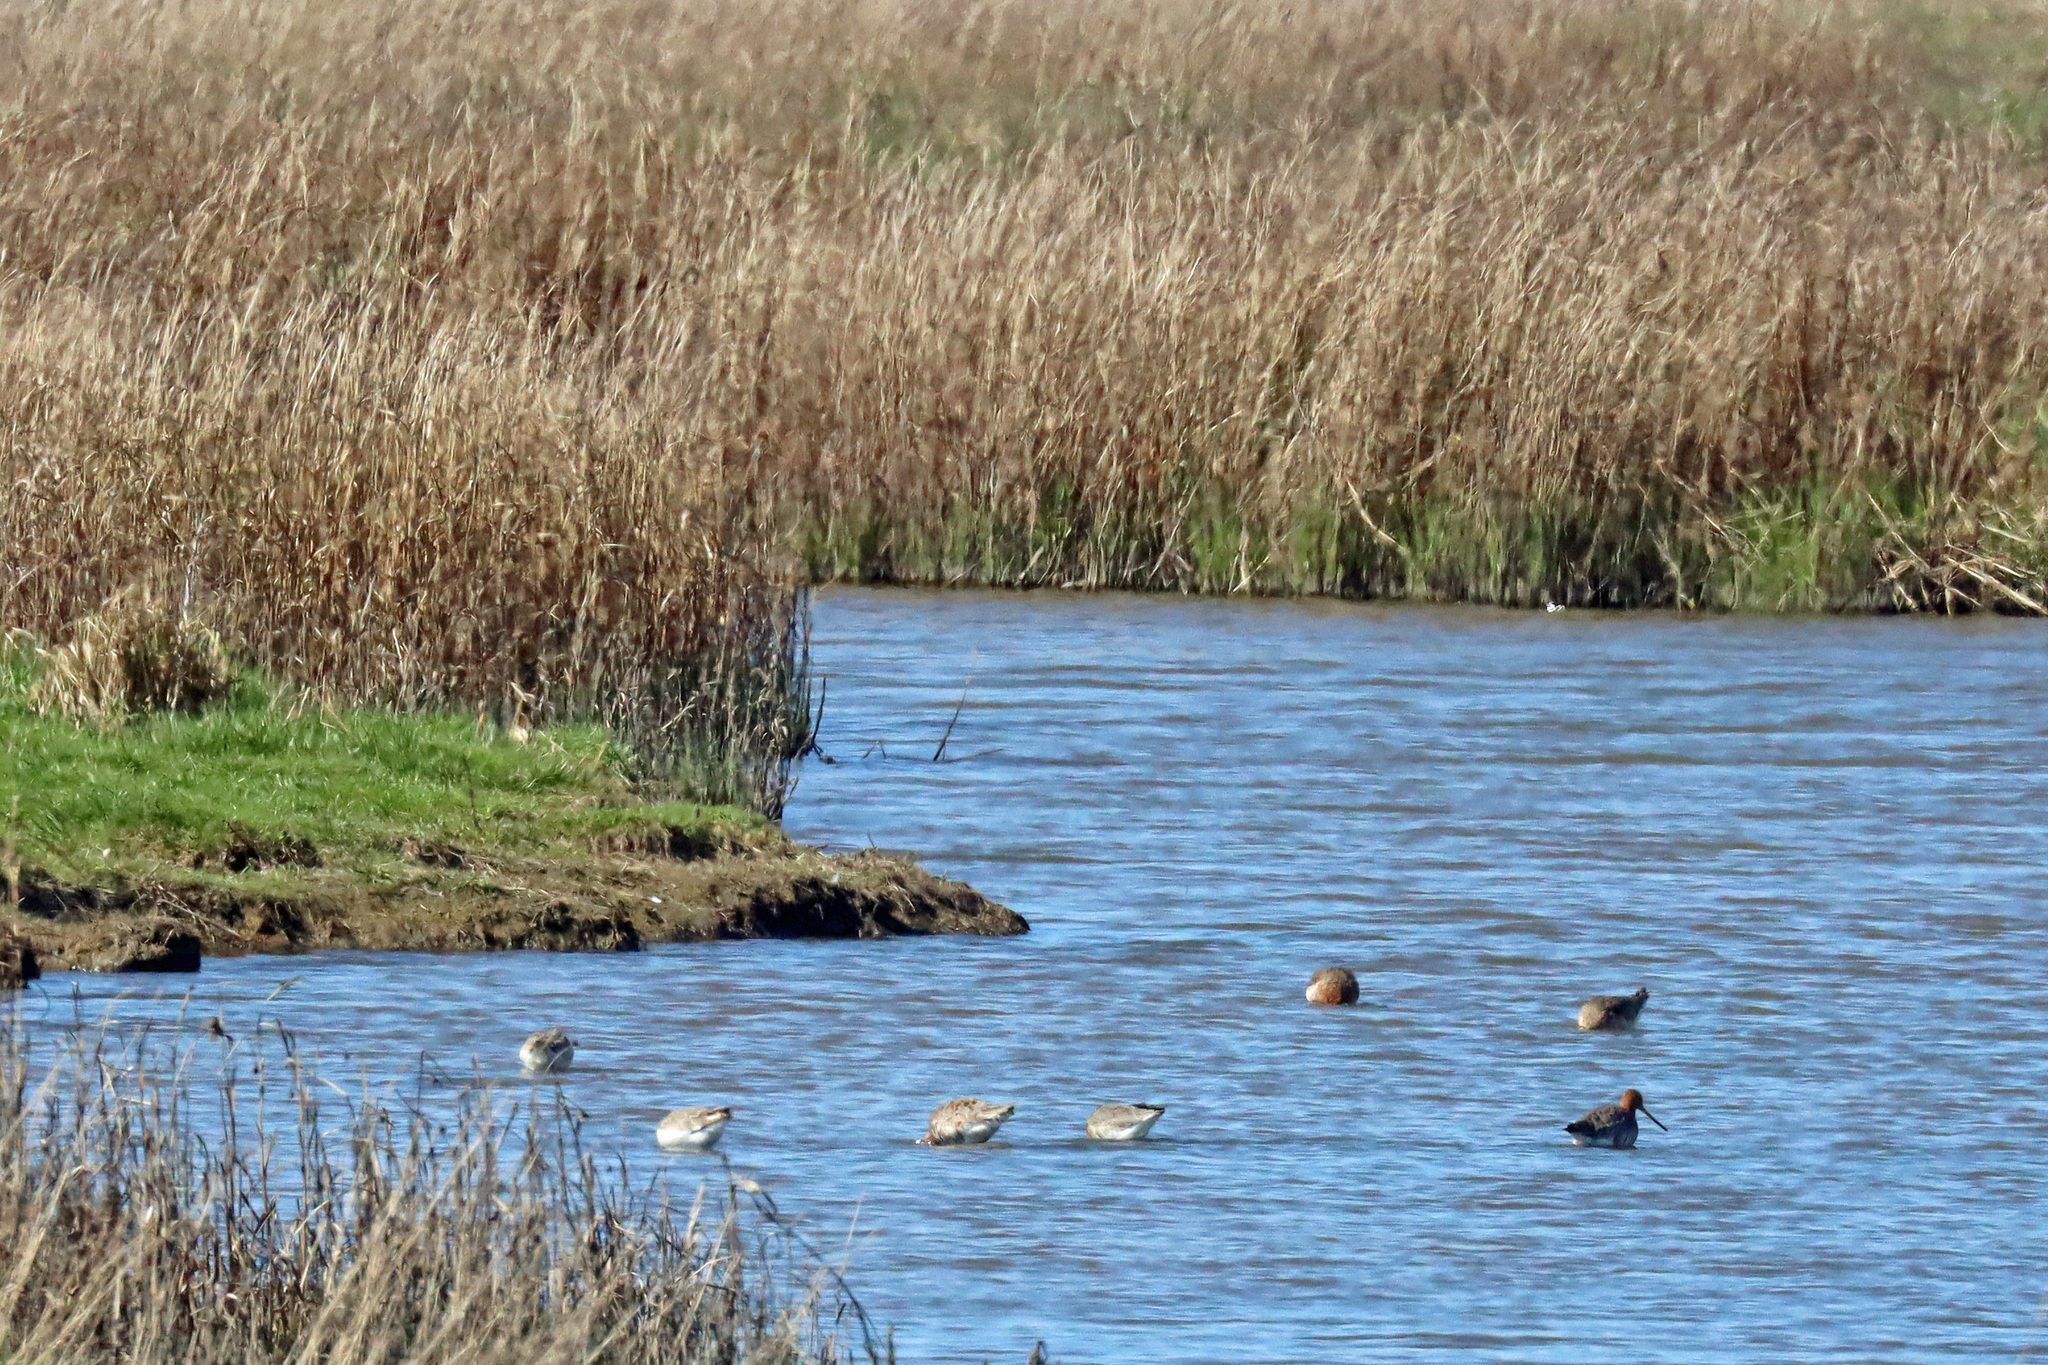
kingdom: Animalia
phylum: Chordata
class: Aves
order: Charadriiformes
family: Scolopacidae
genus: Limosa
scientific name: Limosa limosa
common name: Black-tailed godwit
